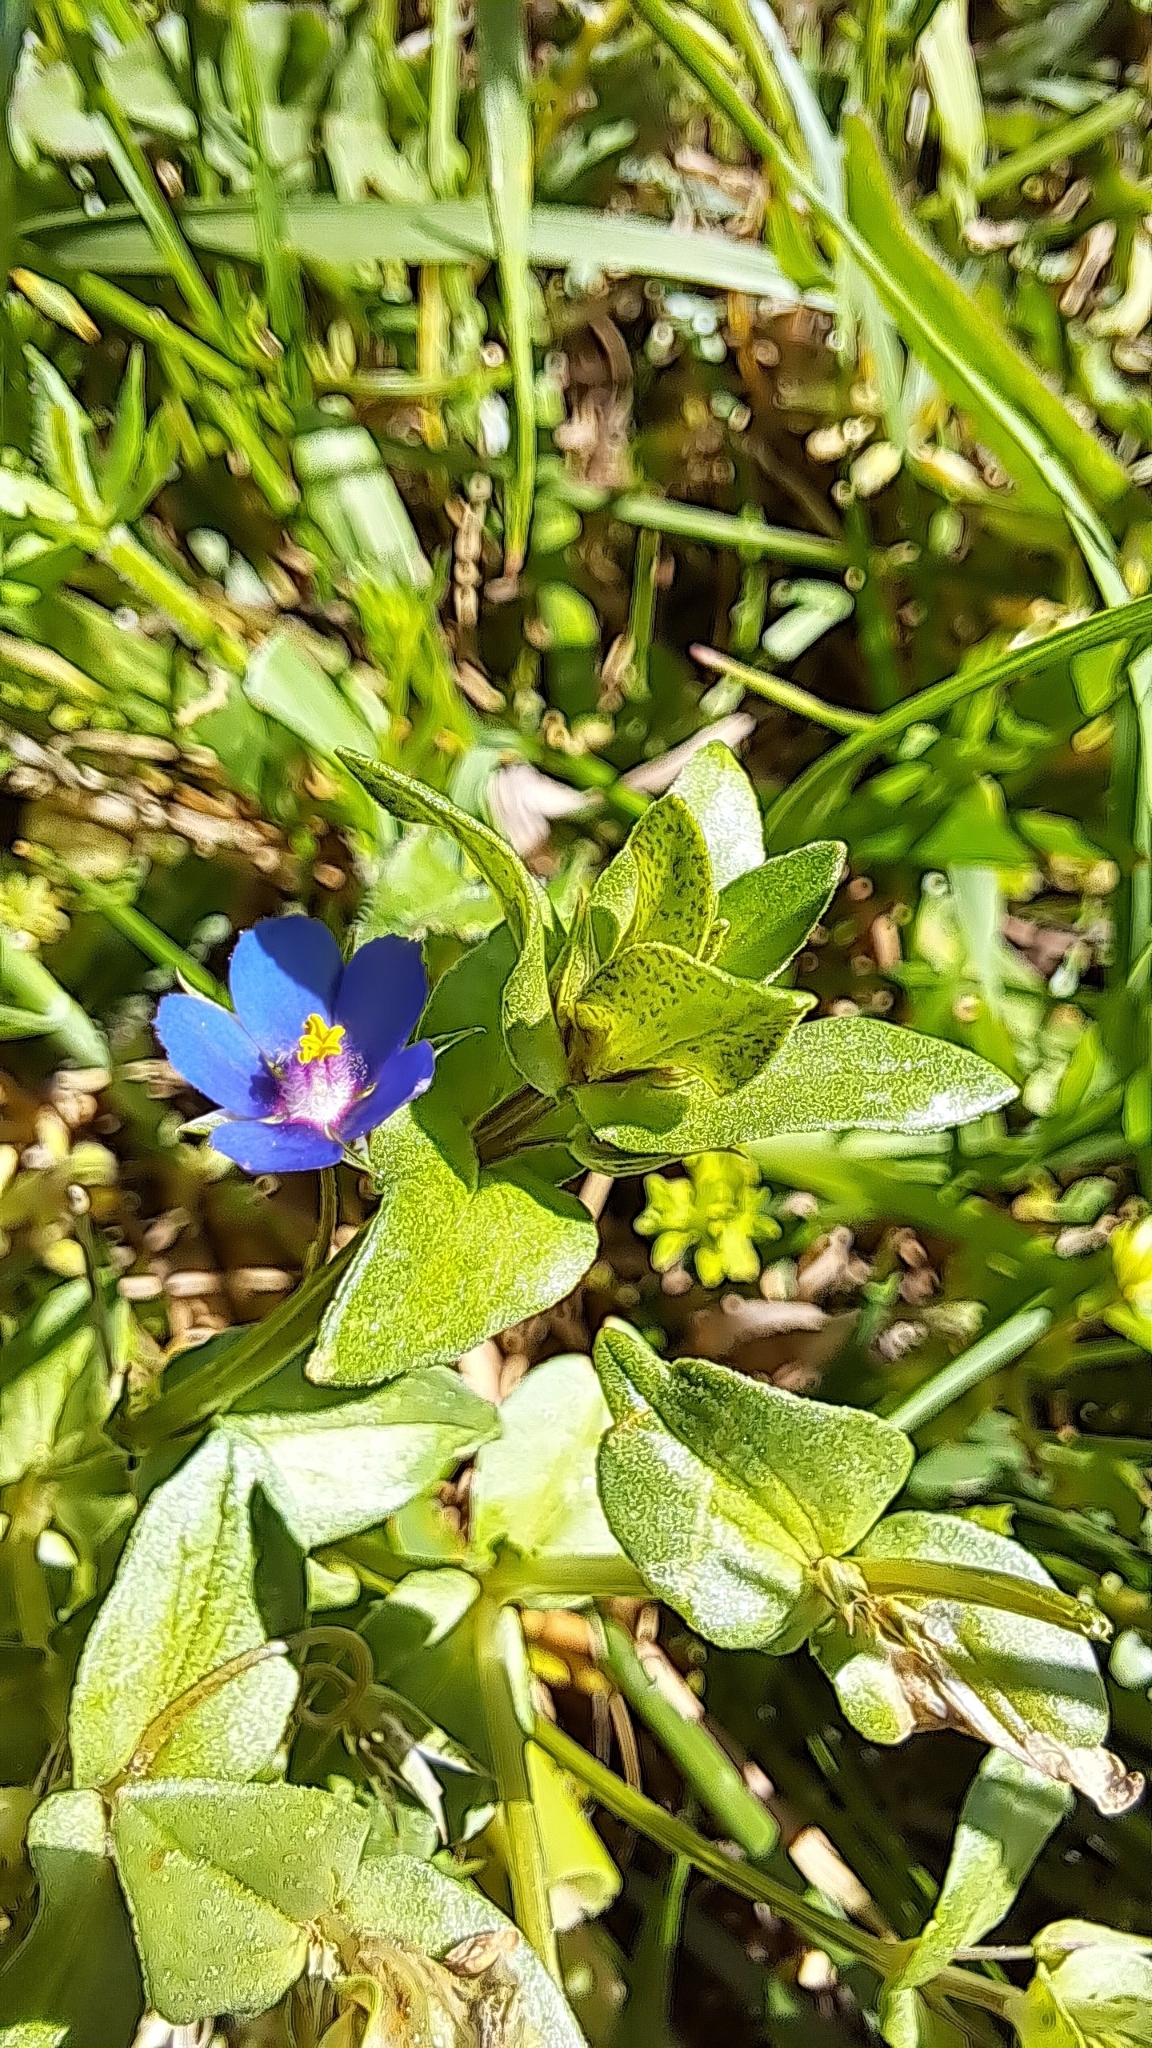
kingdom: Plantae
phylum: Tracheophyta
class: Magnoliopsida
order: Ericales
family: Primulaceae
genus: Lysimachia
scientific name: Lysimachia loeflingii
